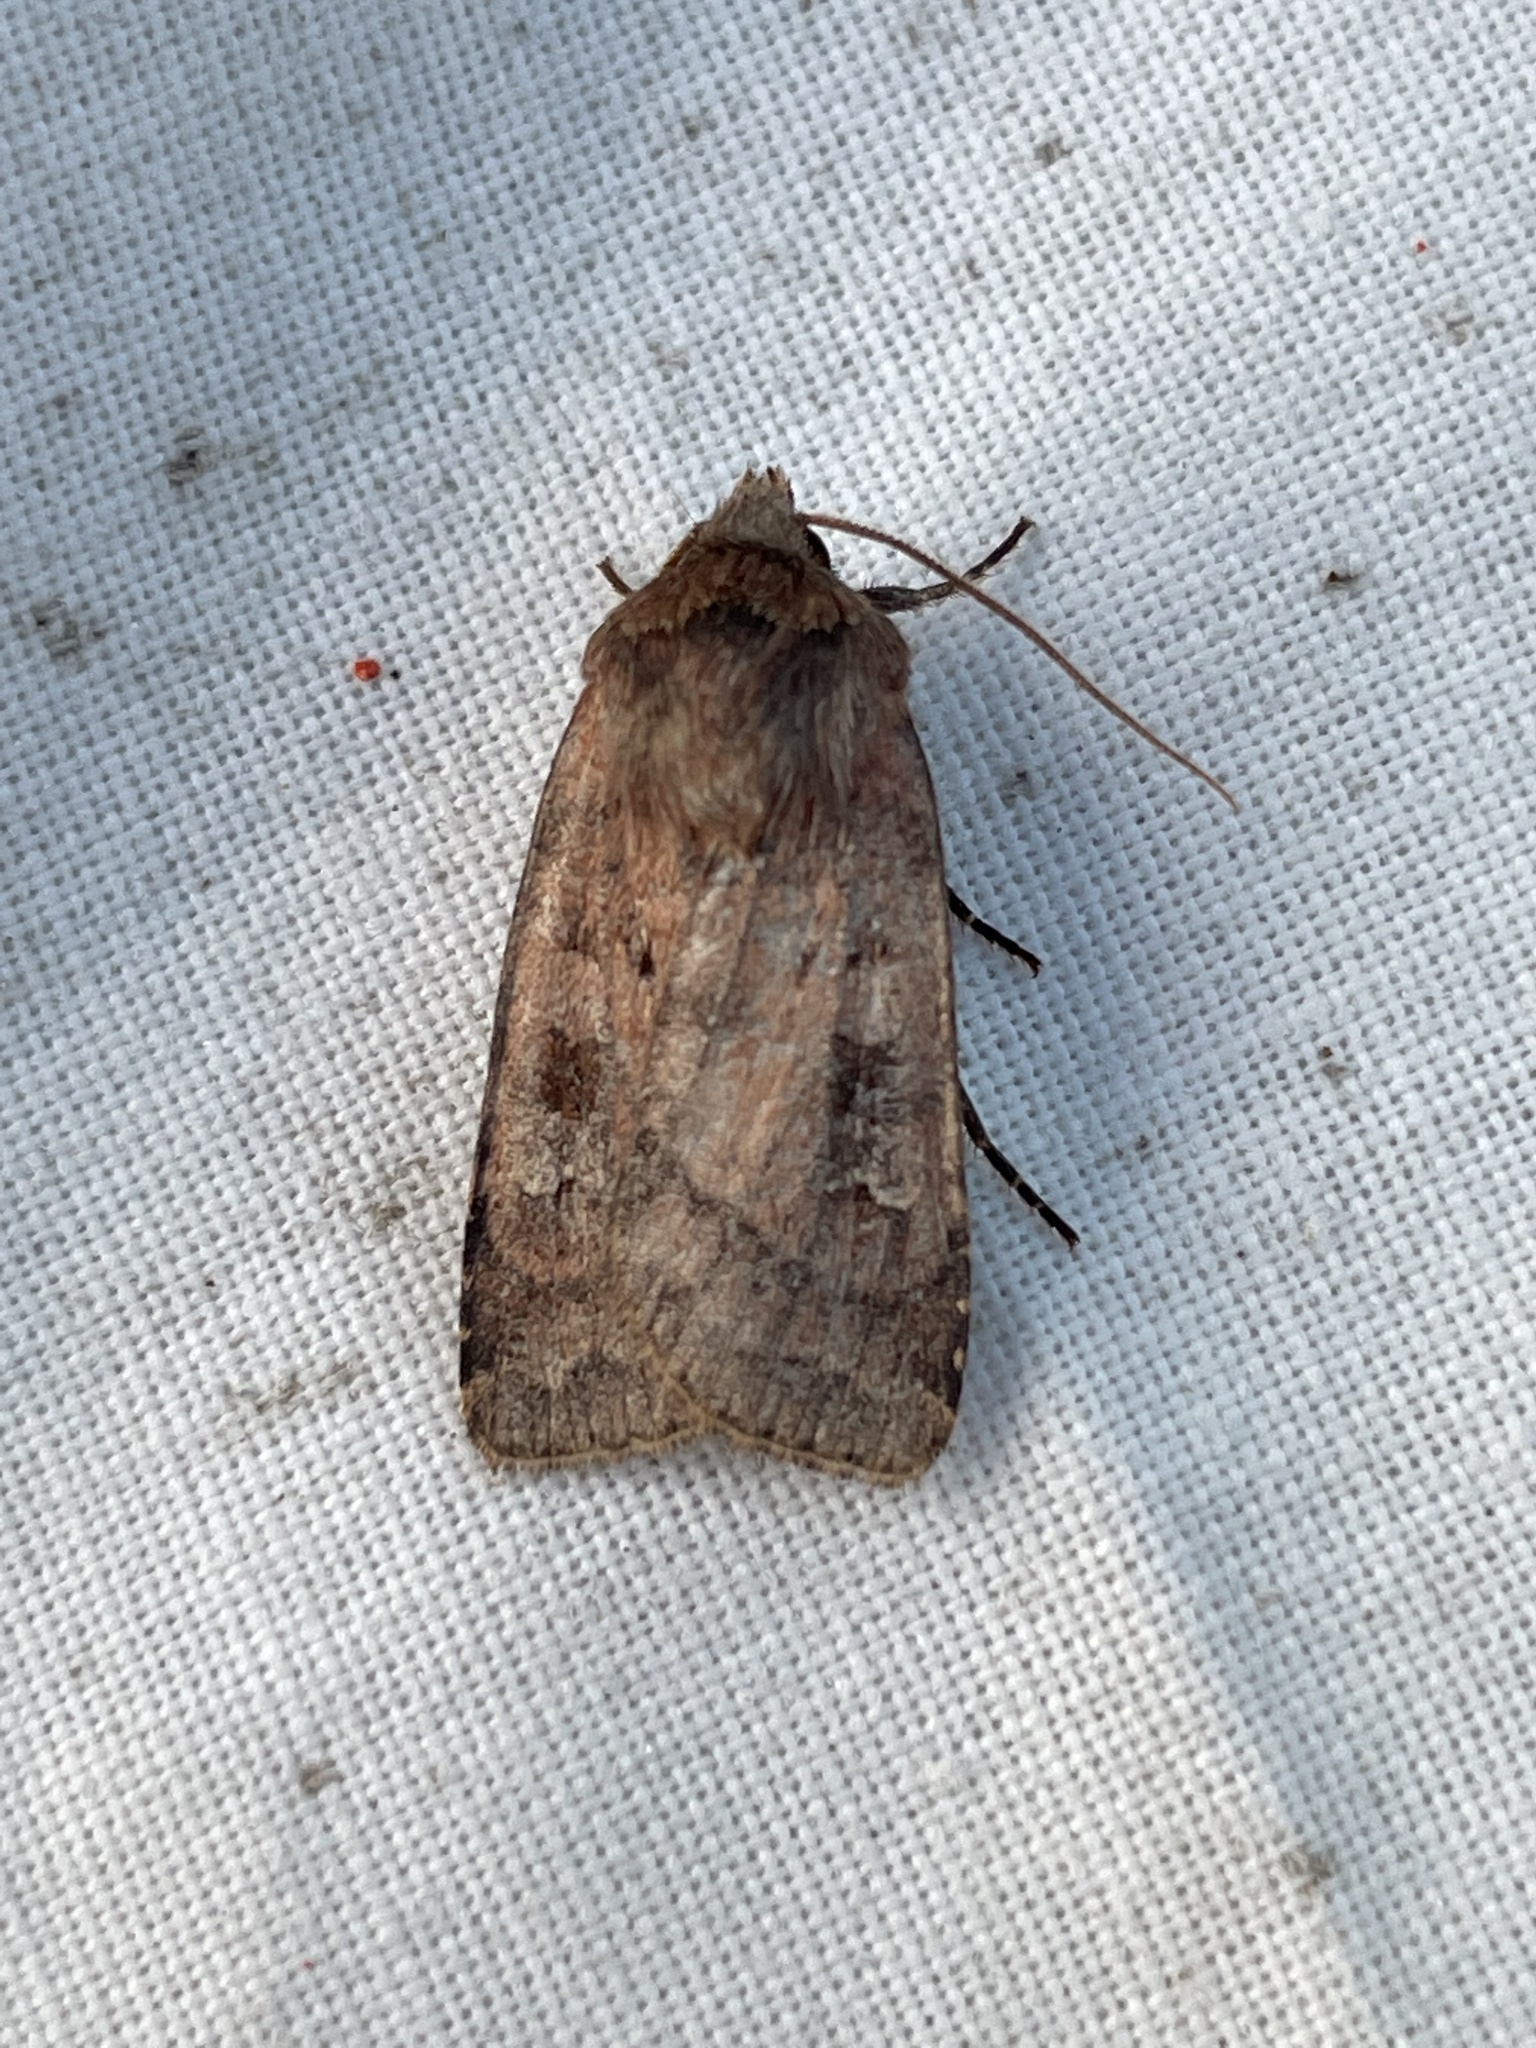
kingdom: Animalia
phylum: Arthropoda
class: Insecta
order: Lepidoptera
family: Noctuidae
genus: Diarsia
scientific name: Diarsia rubi
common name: Small square-spot
